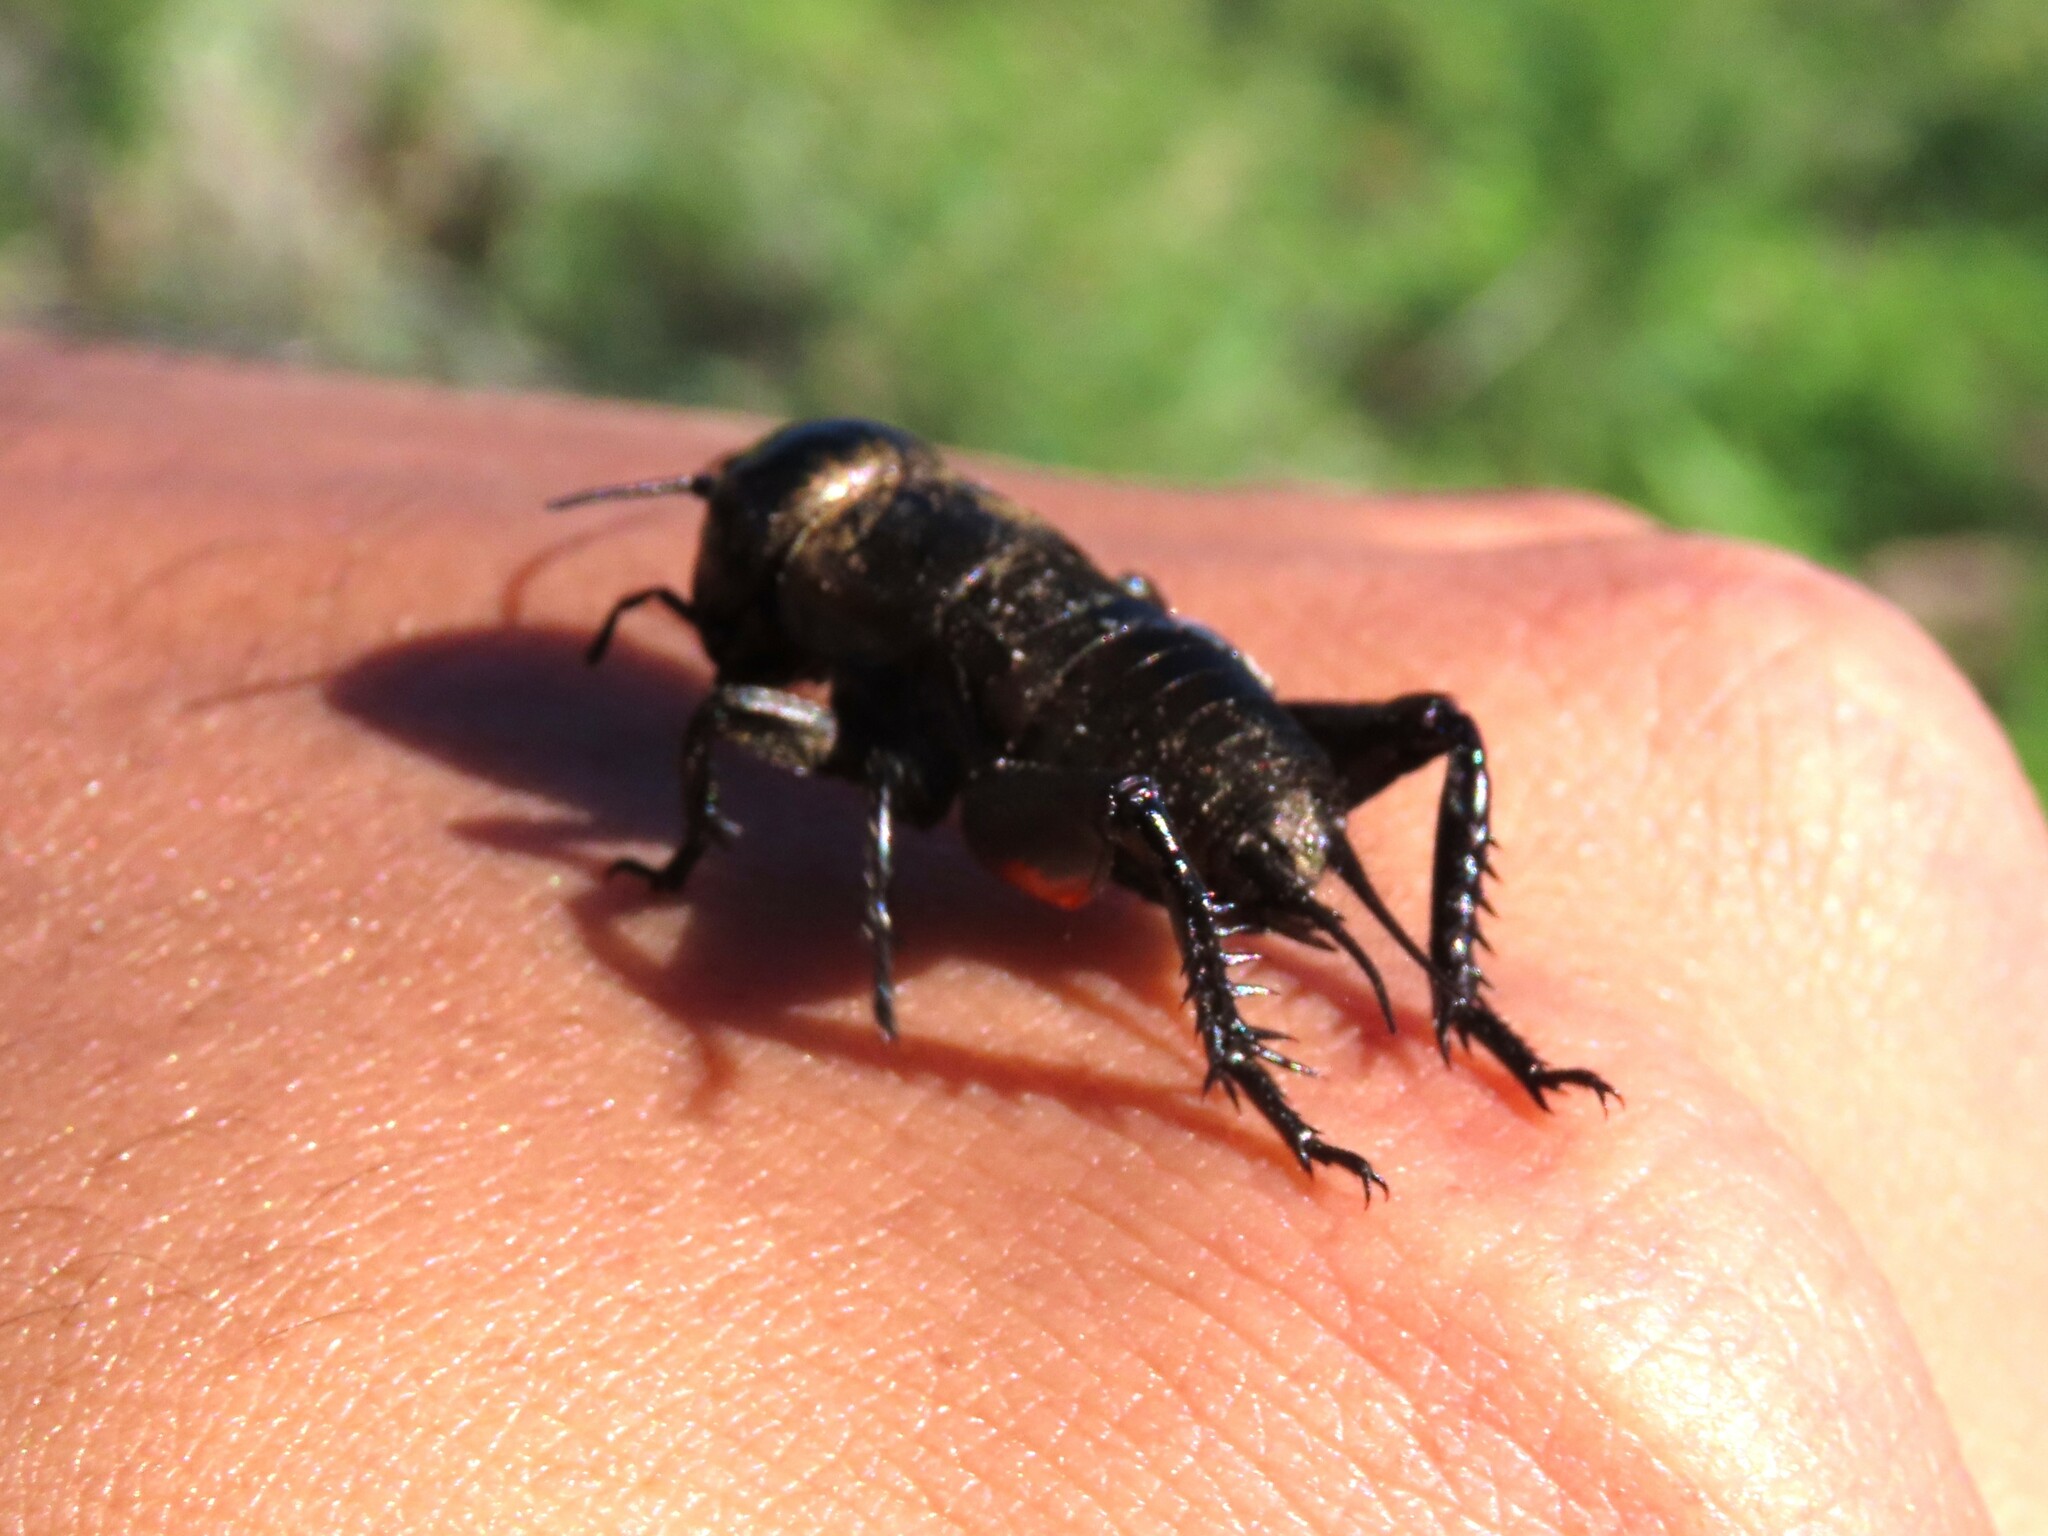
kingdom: Animalia
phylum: Arthropoda
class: Insecta
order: Orthoptera
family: Gryllidae
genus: Gryllus
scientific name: Gryllus campestris
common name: Field cricket
